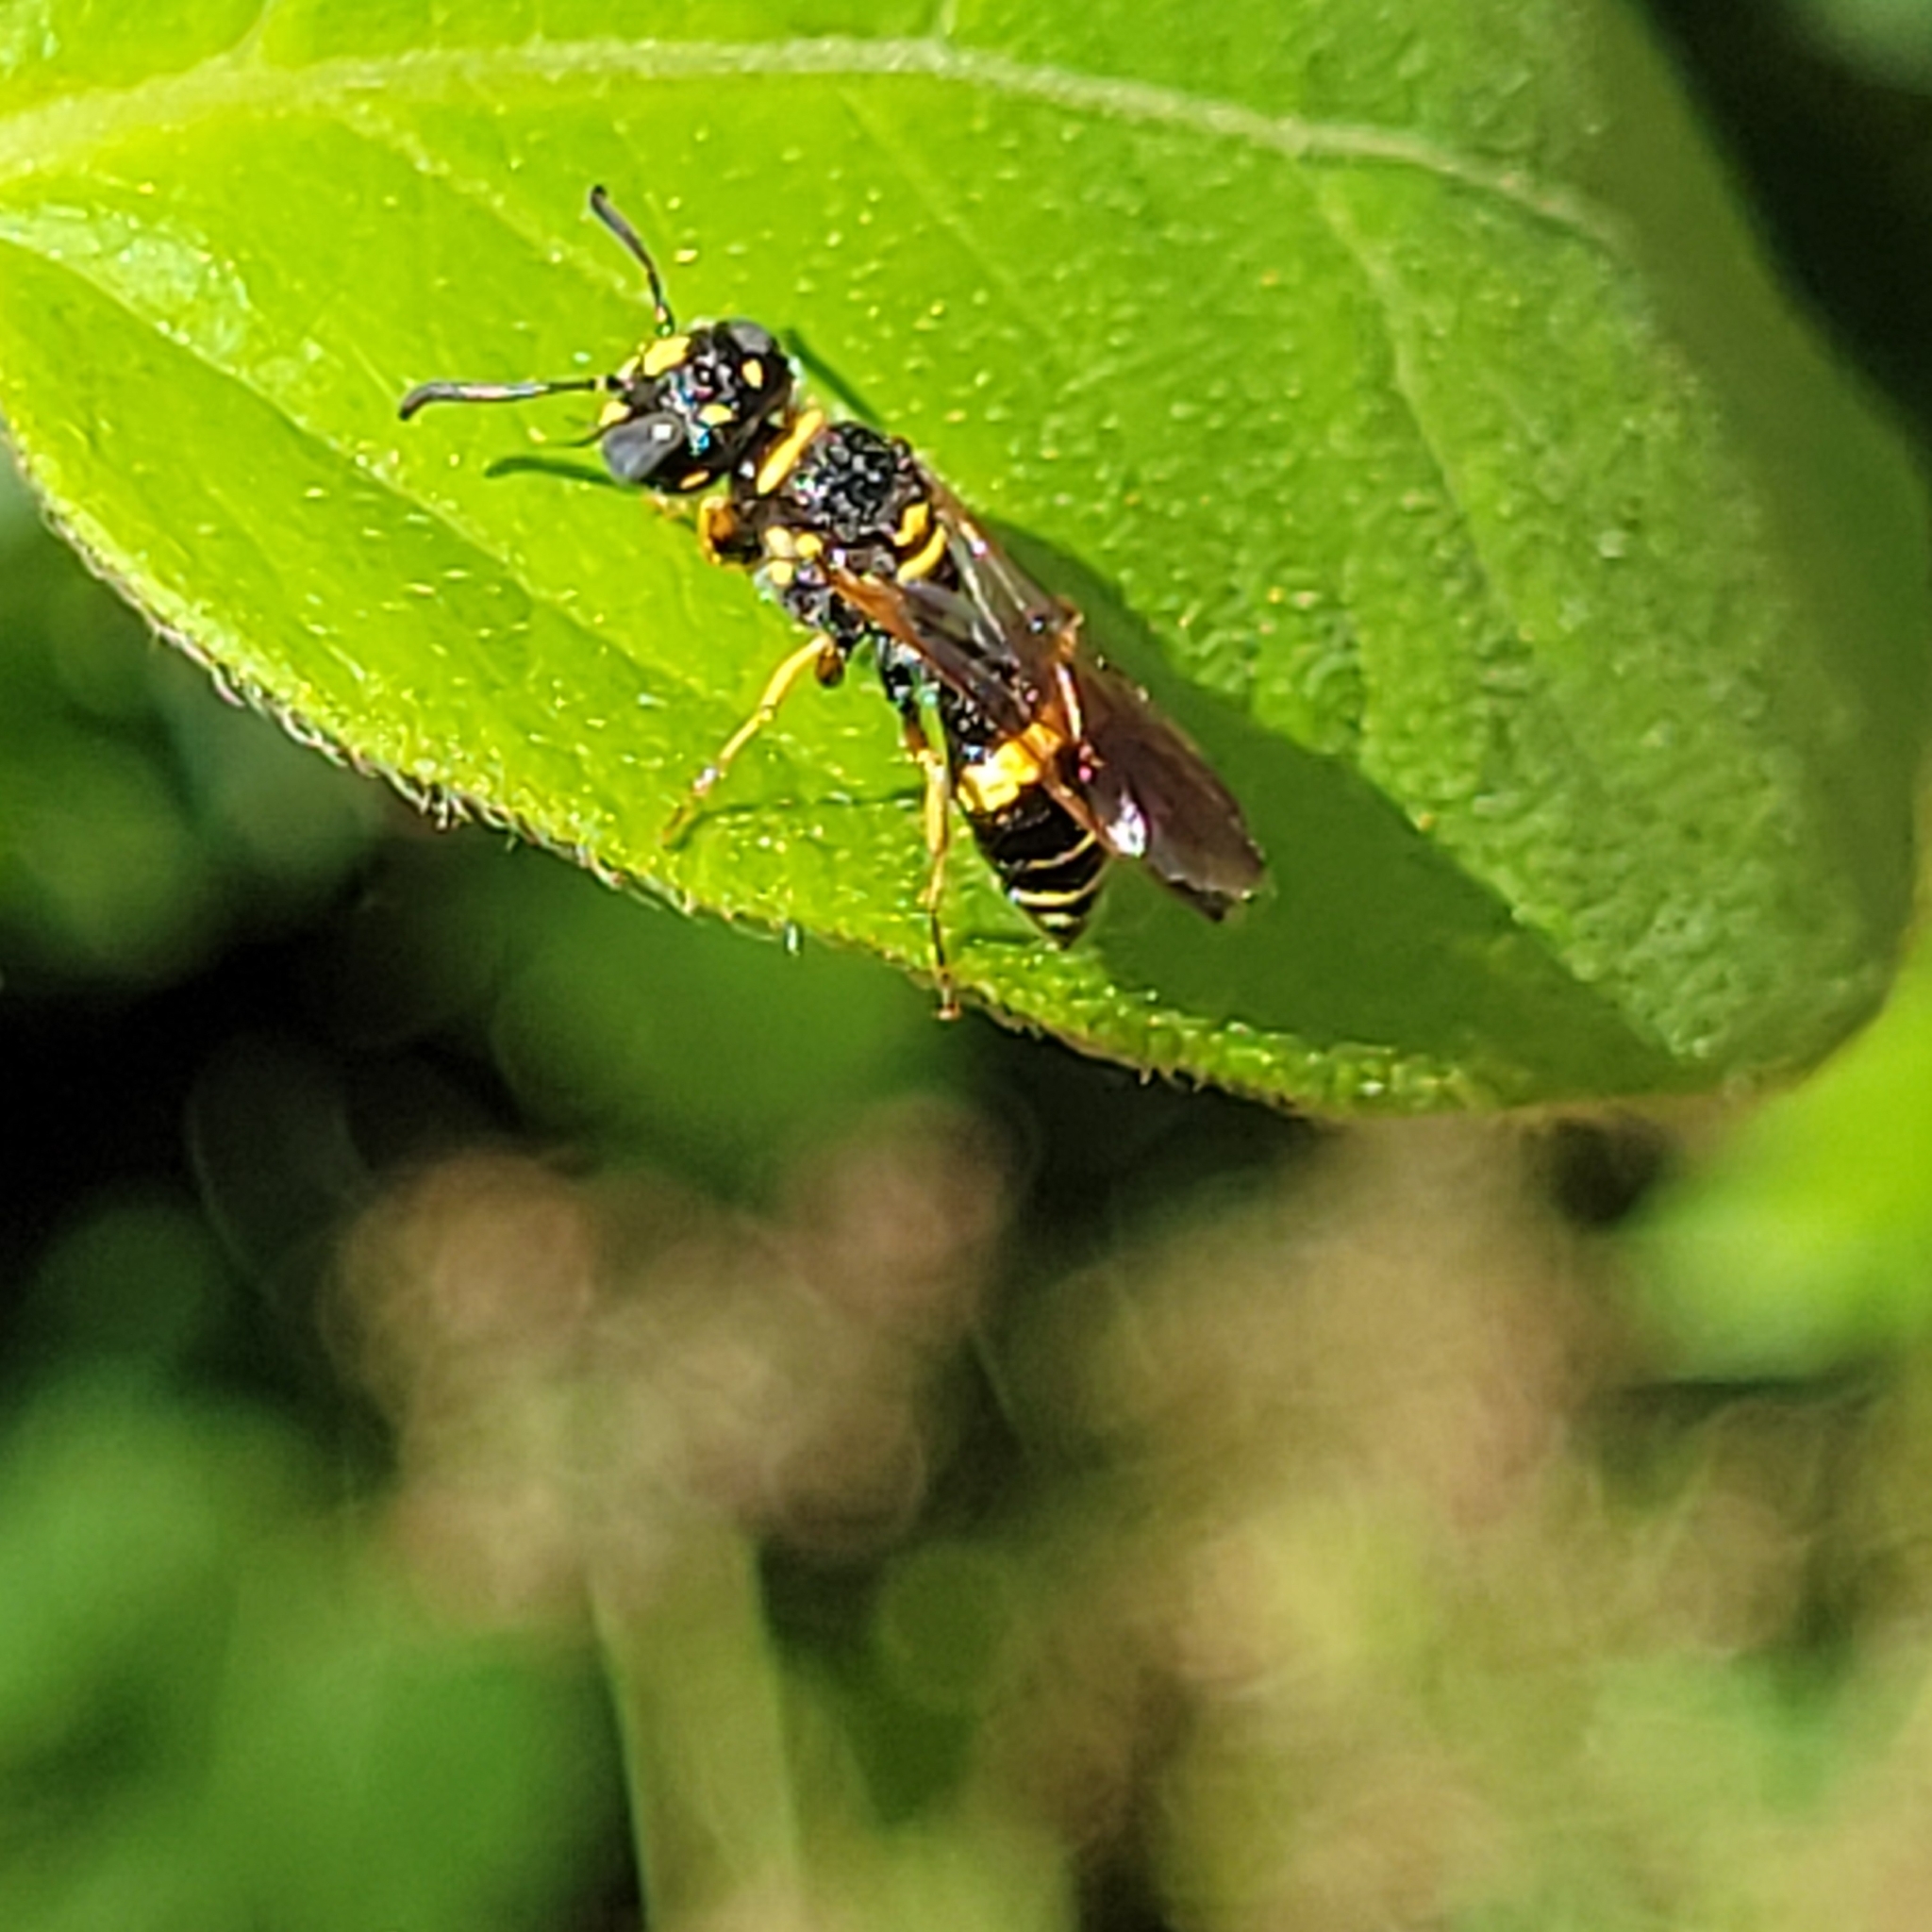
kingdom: Animalia
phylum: Arthropoda
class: Insecta
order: Hymenoptera
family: Crabronidae
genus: Philanthus
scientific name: Philanthus gibbosus
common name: Humped beewolf
